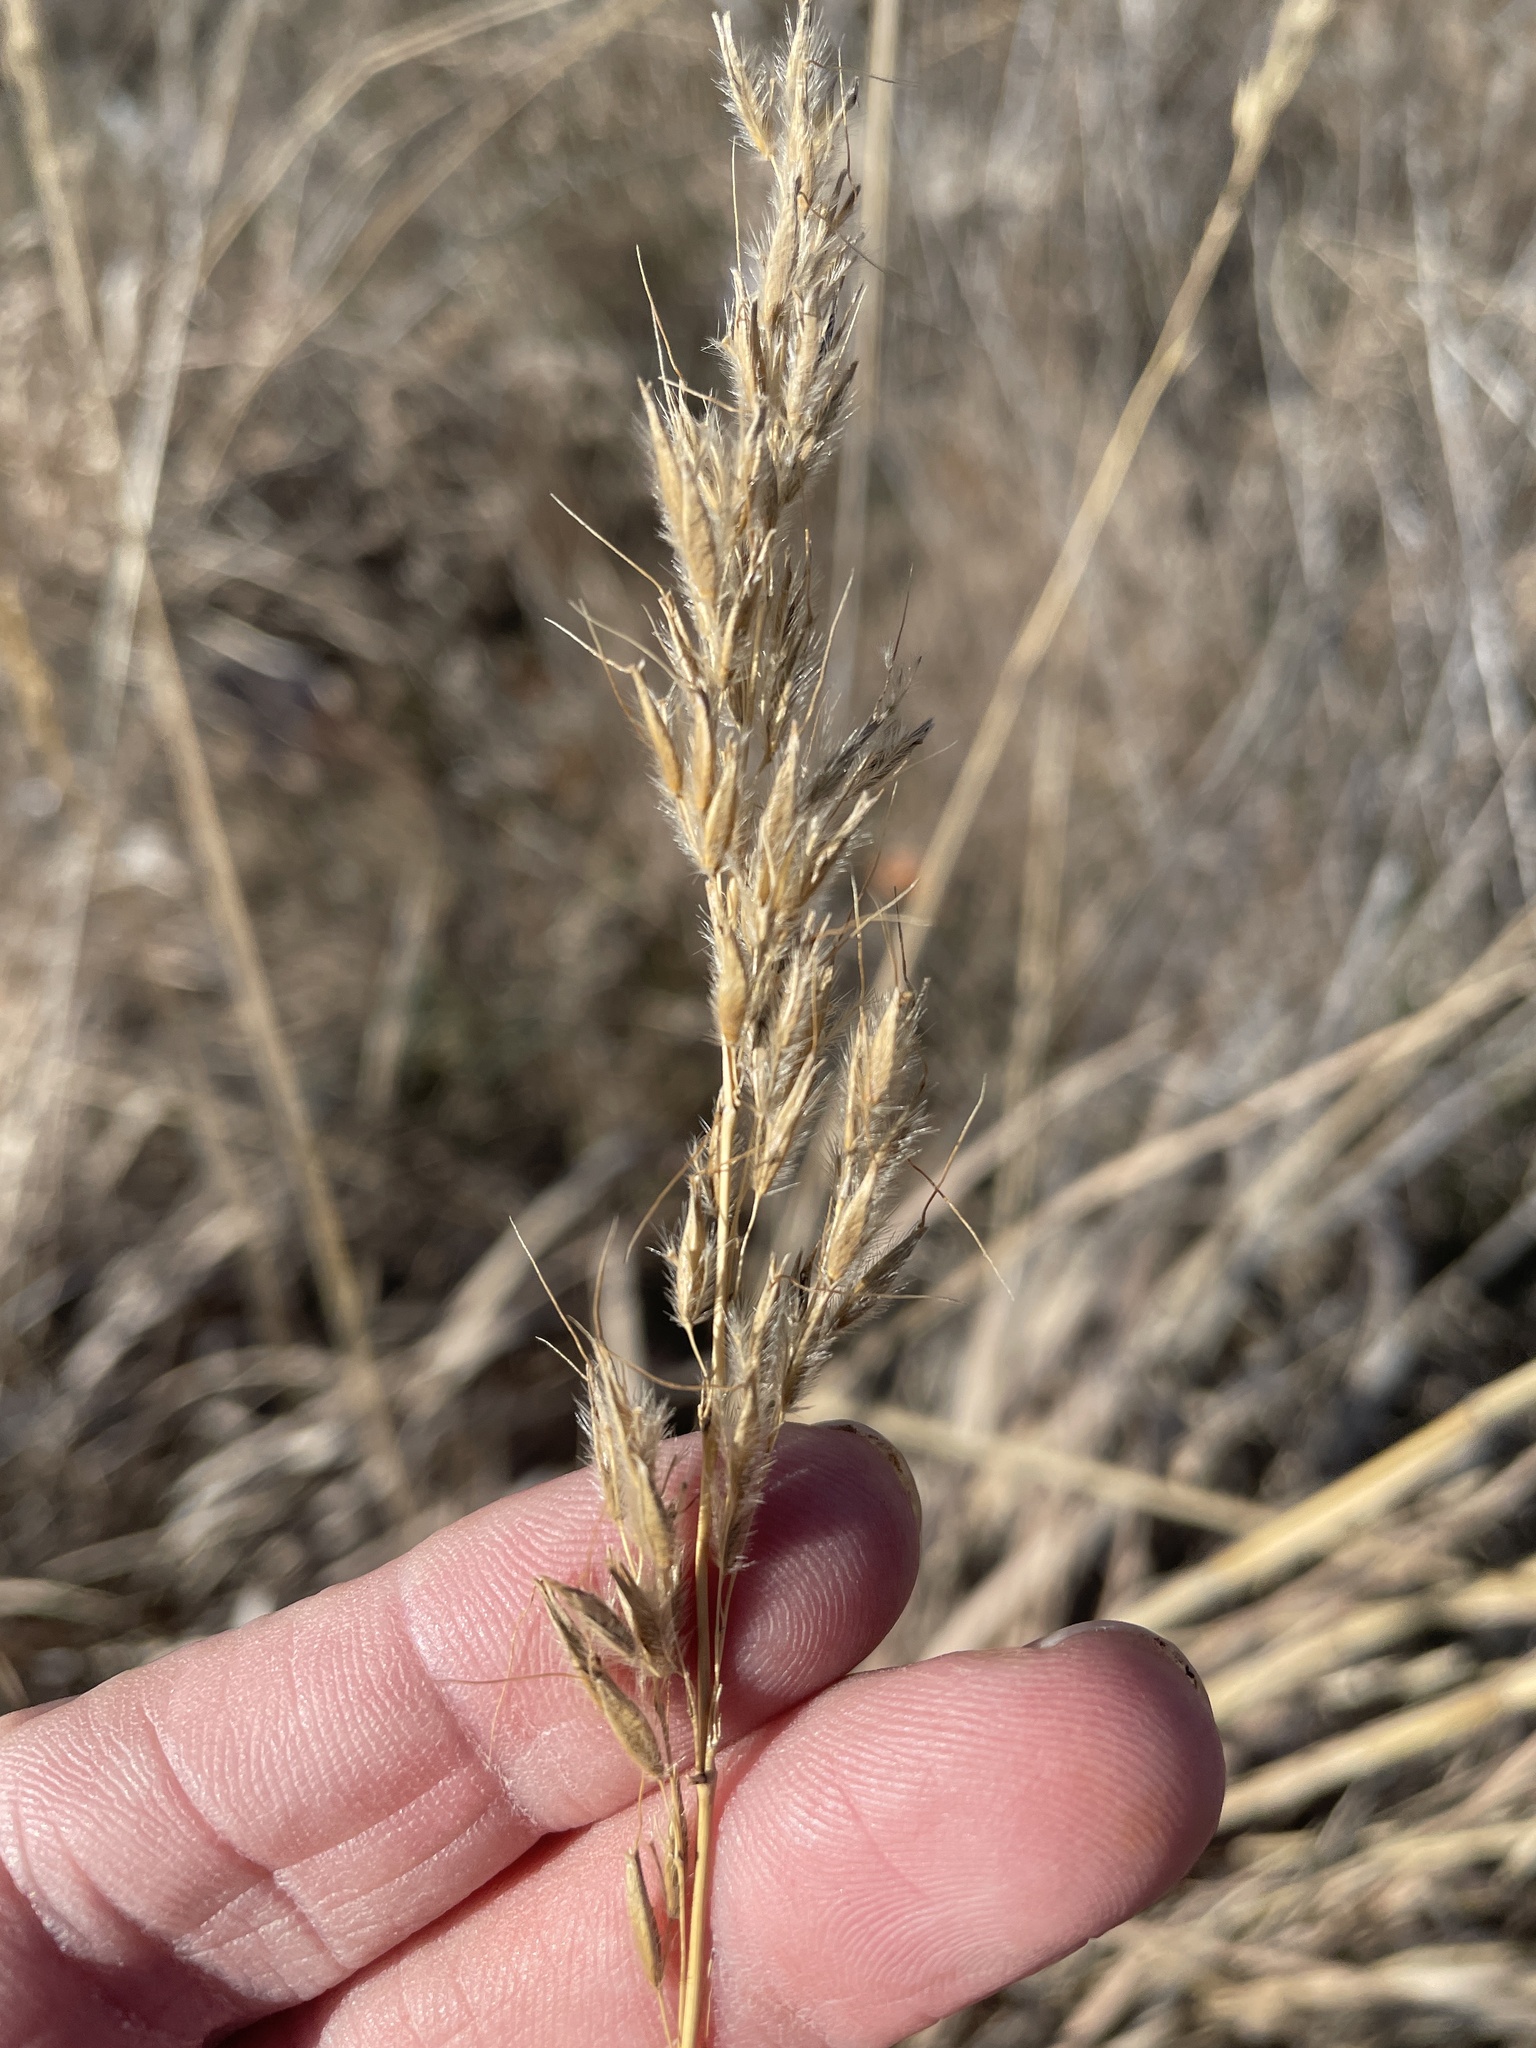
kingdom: Plantae
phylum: Tracheophyta
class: Liliopsida
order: Poales
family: Poaceae
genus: Sorghastrum
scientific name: Sorghastrum nutans
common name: Indian grass
